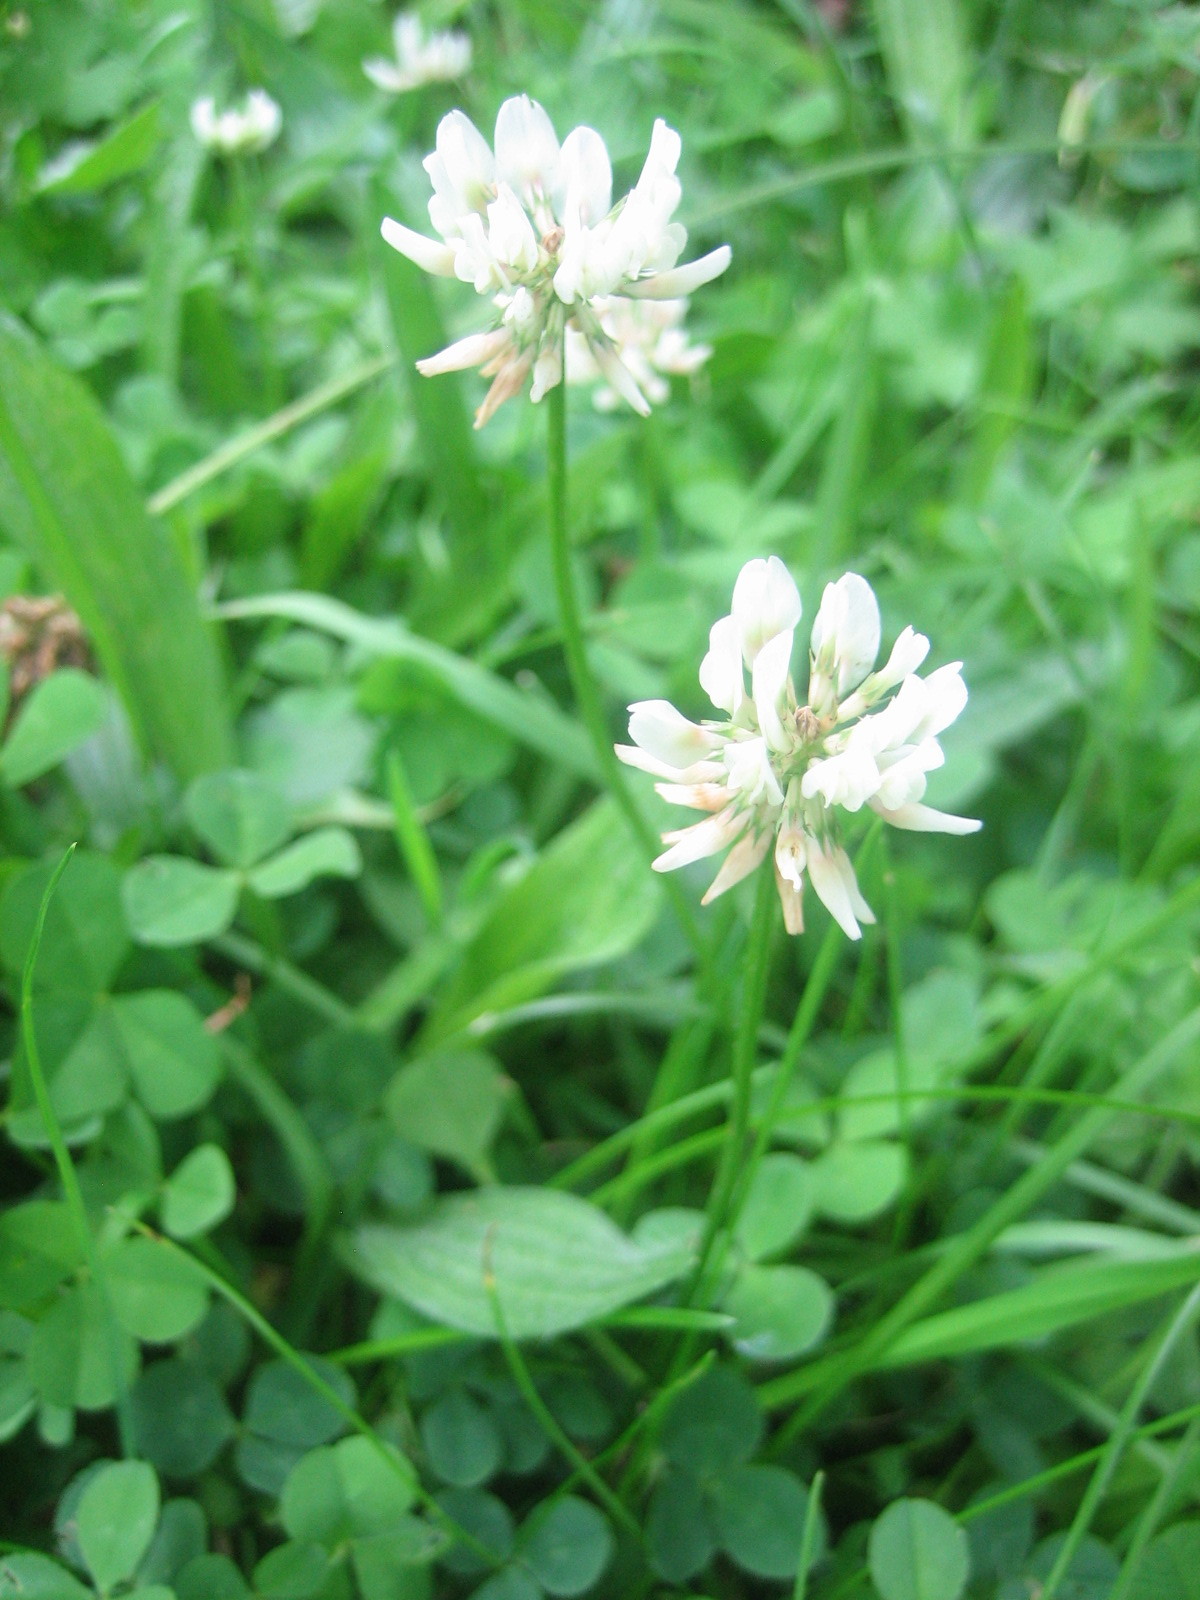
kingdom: Plantae
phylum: Tracheophyta
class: Magnoliopsida
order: Fabales
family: Fabaceae
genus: Trifolium
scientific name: Trifolium repens
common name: White clover
